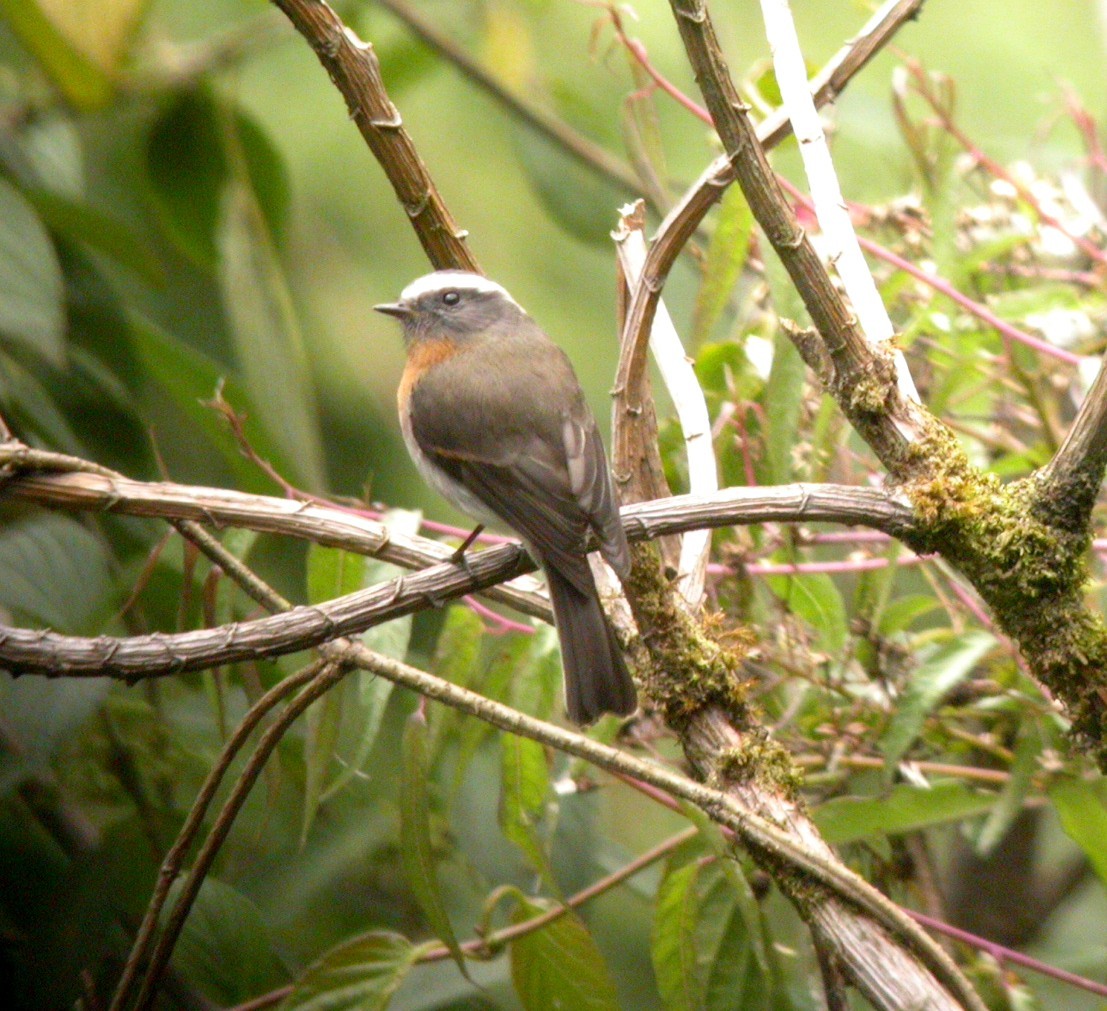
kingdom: Animalia
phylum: Chordata
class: Aves
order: Passeriformes
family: Tyrannidae
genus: Ochthoeca
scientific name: Ochthoeca rufipectoralis
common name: Rufous-breasted chat-tyrant
